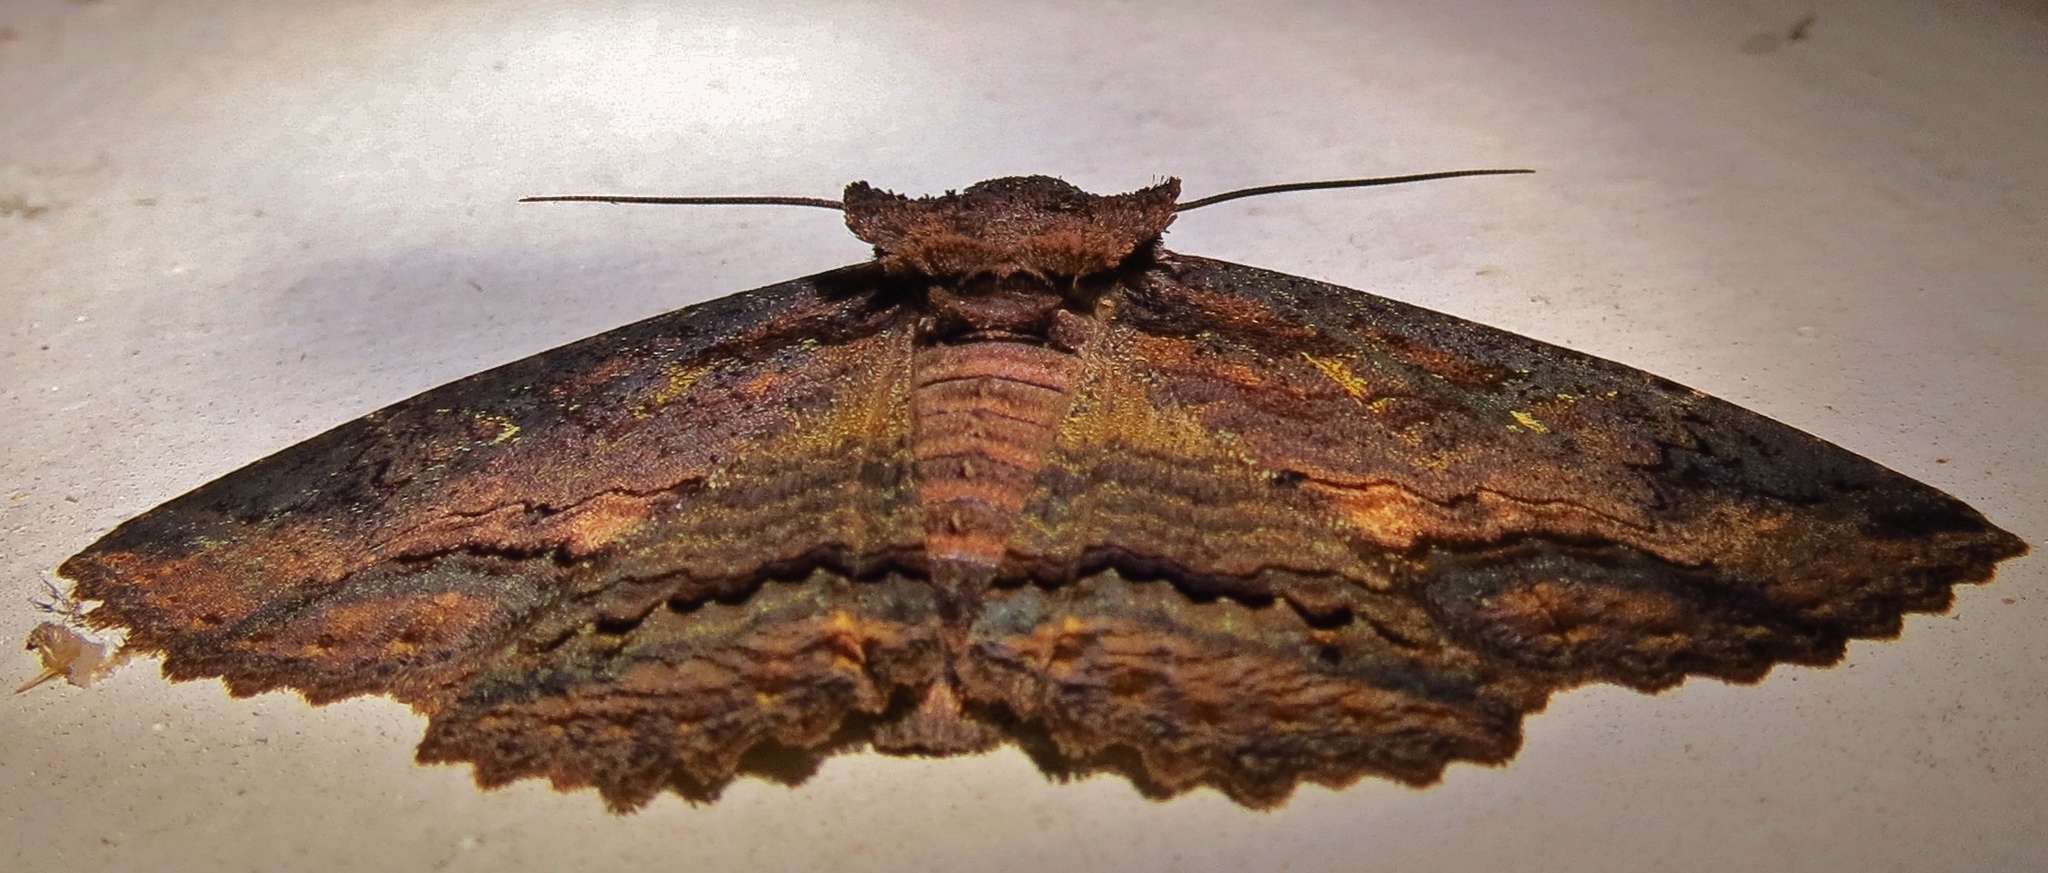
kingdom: Animalia
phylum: Arthropoda
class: Insecta
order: Lepidoptera
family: Erebidae
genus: Zale
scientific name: Zale lunata
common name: Lunate zale moth
